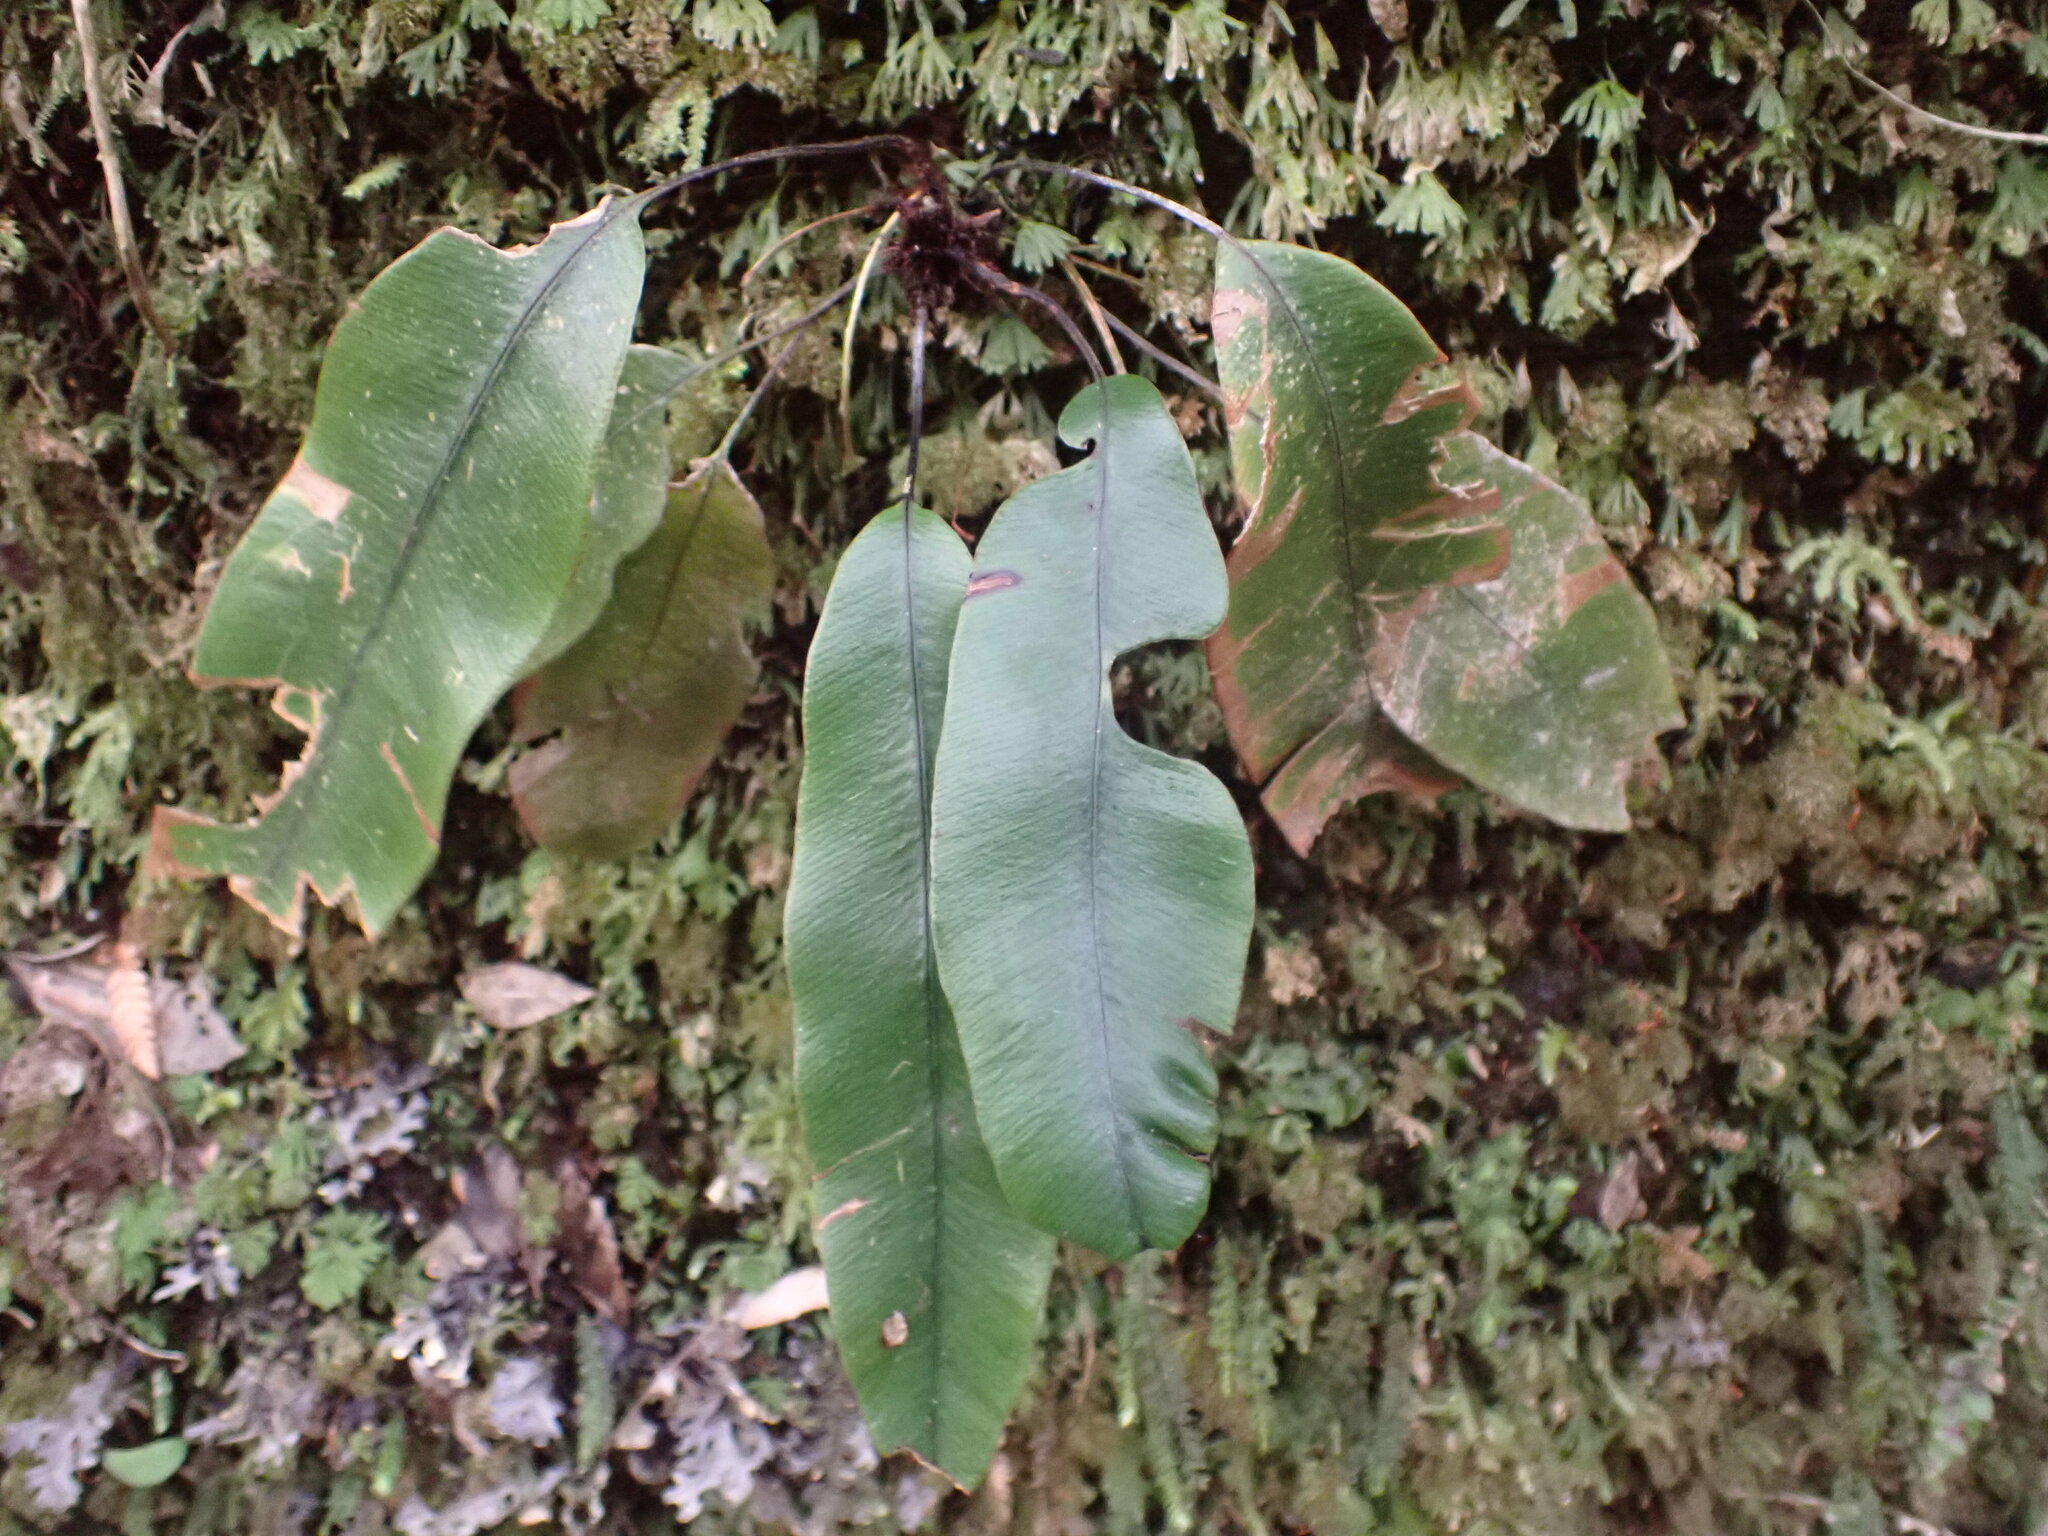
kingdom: Plantae
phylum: Tracheophyta
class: Polypodiopsida
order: Polypodiales
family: Blechnaceae
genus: Austroblechnum
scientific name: Austroblechnum colensoi
